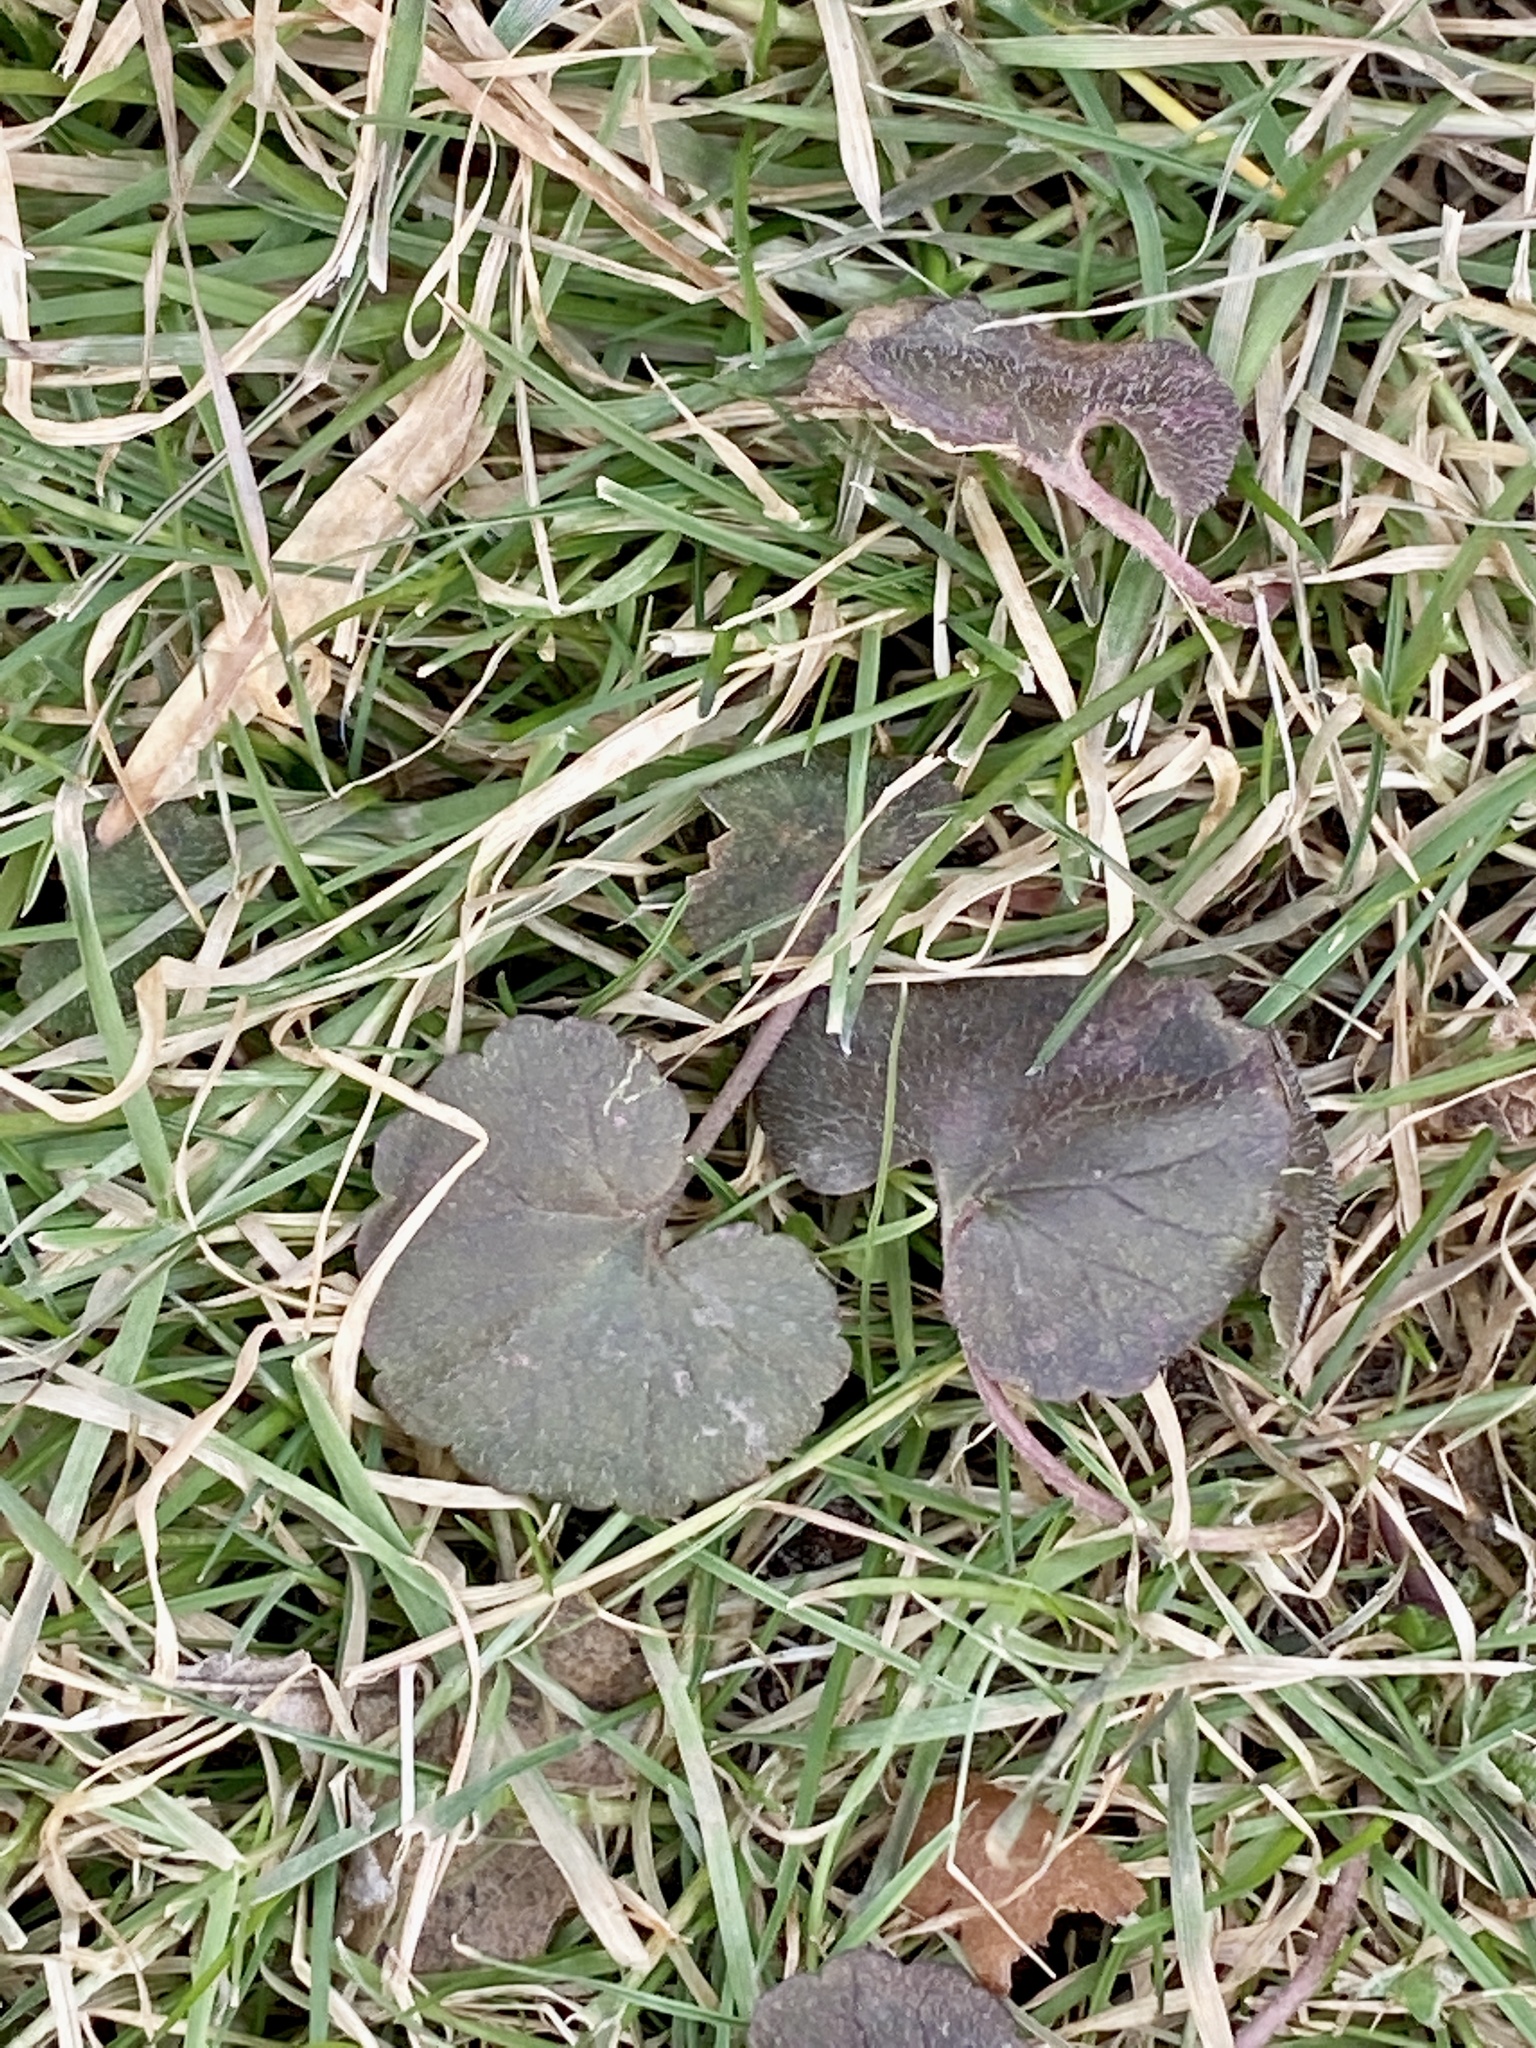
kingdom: Plantae
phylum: Tracheophyta
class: Magnoliopsida
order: Lamiales
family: Lamiaceae
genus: Glechoma
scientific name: Glechoma hederacea
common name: Ground ivy
